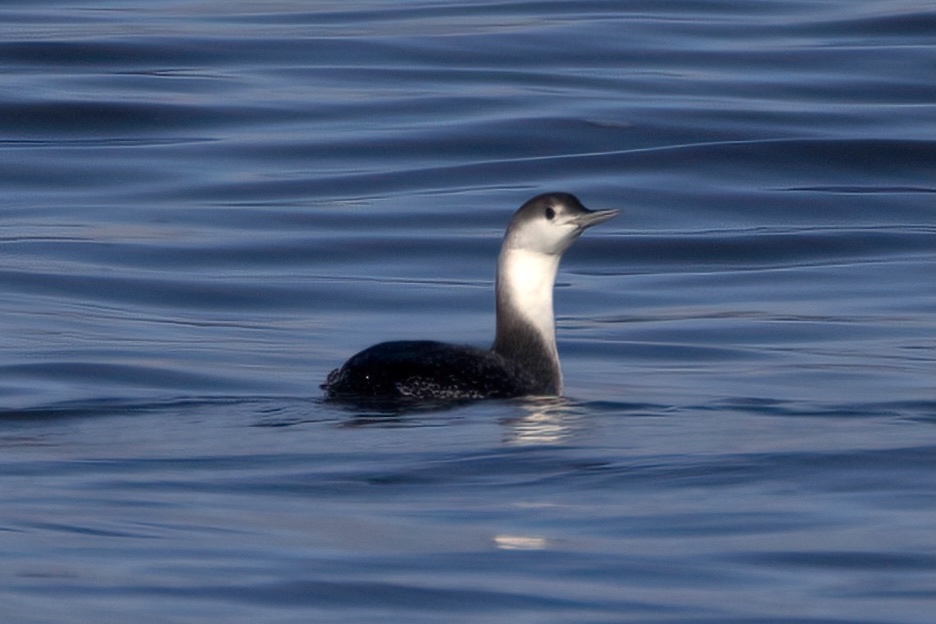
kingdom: Animalia
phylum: Chordata
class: Aves
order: Gaviiformes
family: Gaviidae
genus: Gavia
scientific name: Gavia stellata
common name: Red-throated loon
